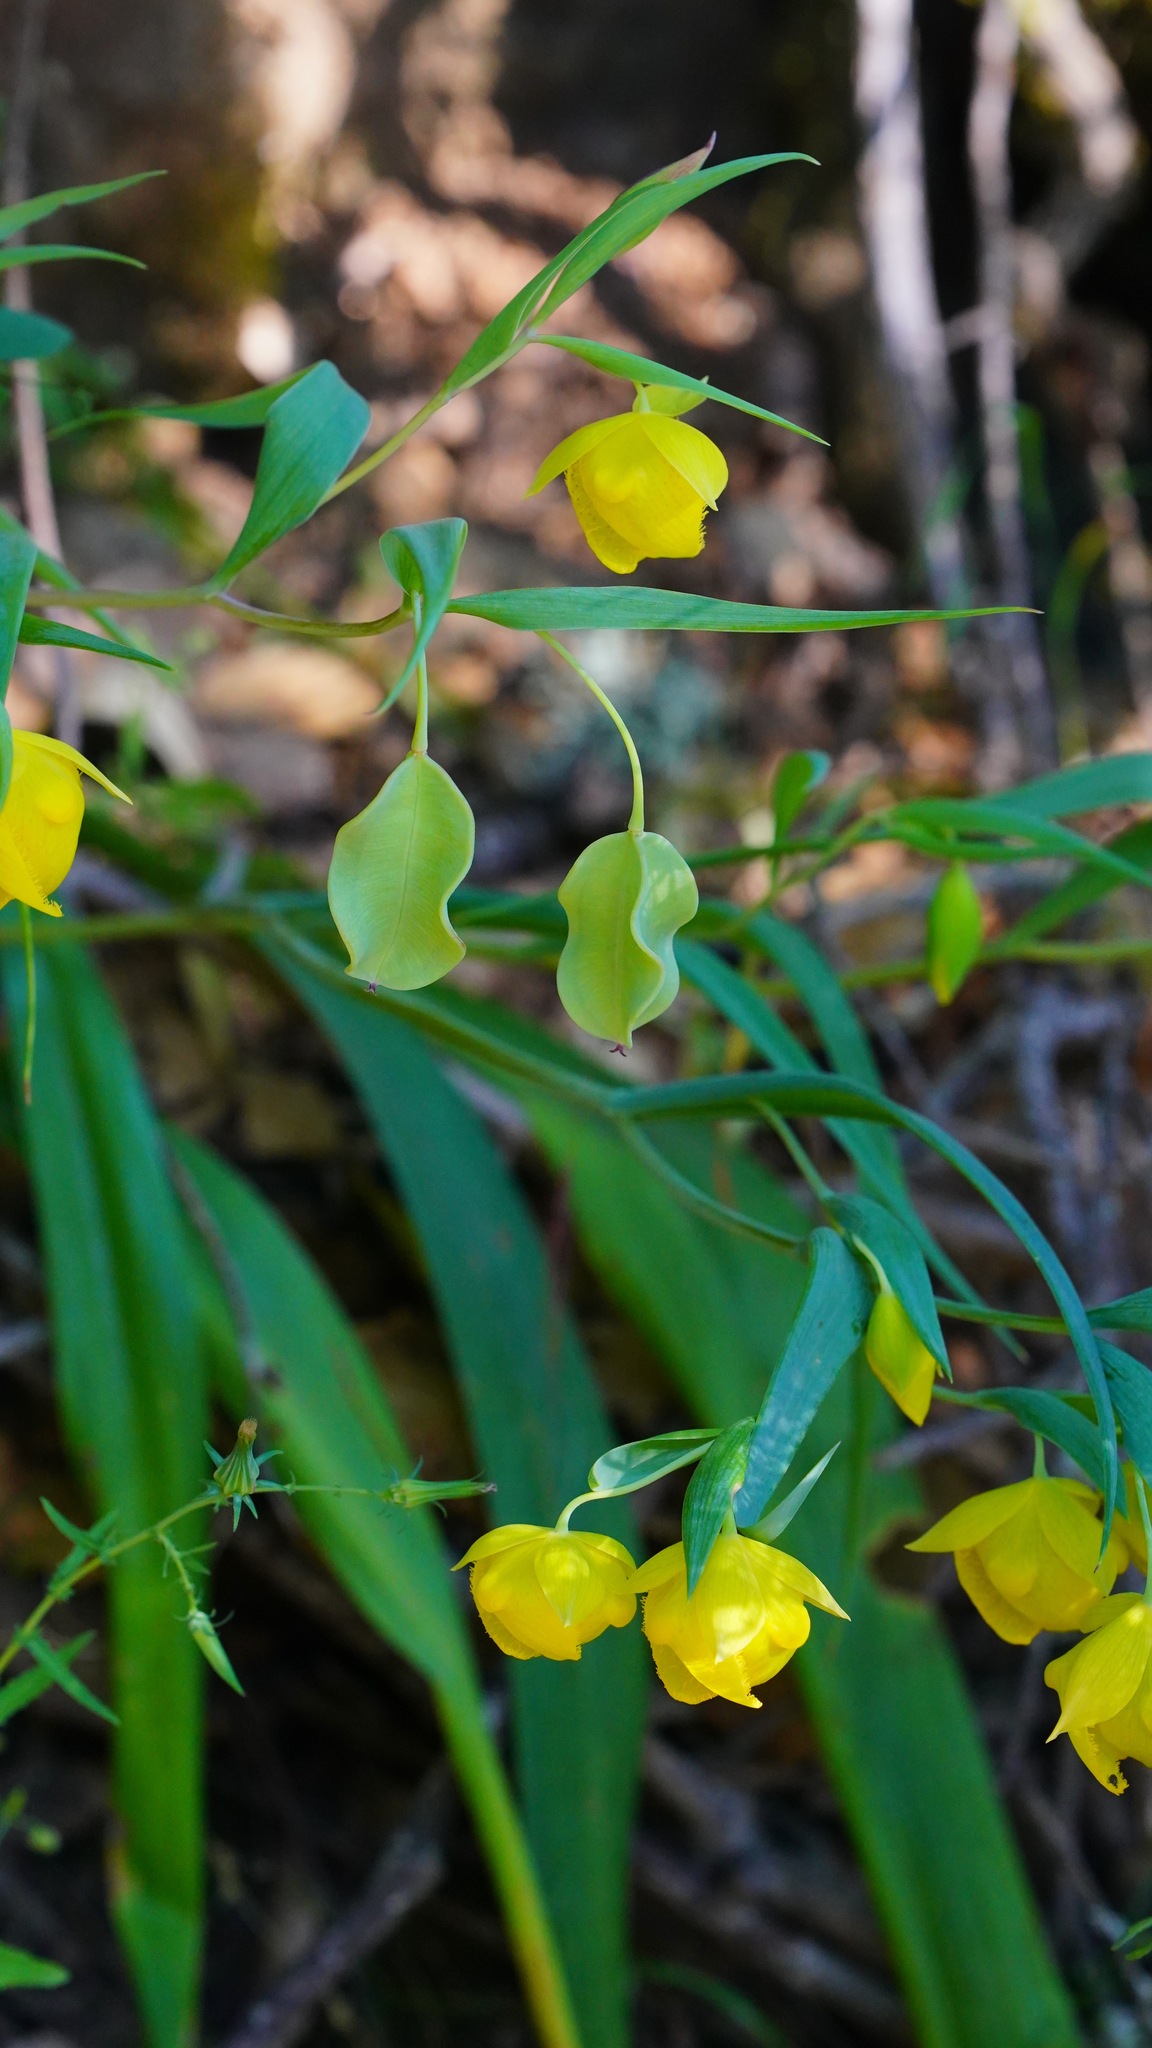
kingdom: Plantae
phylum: Tracheophyta
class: Liliopsida
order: Liliales
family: Liliaceae
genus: Calochortus
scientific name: Calochortus pulchellus
